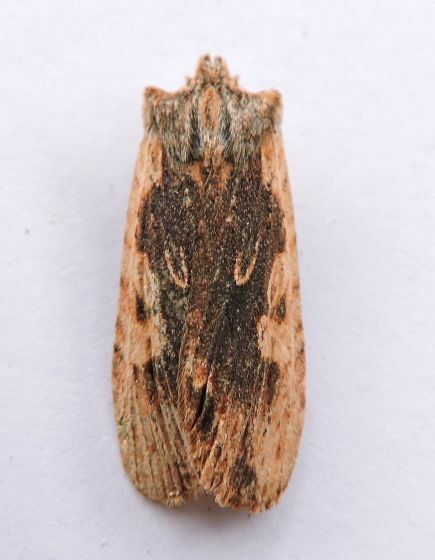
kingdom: Animalia
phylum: Arthropoda
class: Insecta
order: Lepidoptera
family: Noctuidae
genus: Lithophane
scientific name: Lithophane hemina
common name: Hemina pinion moth
